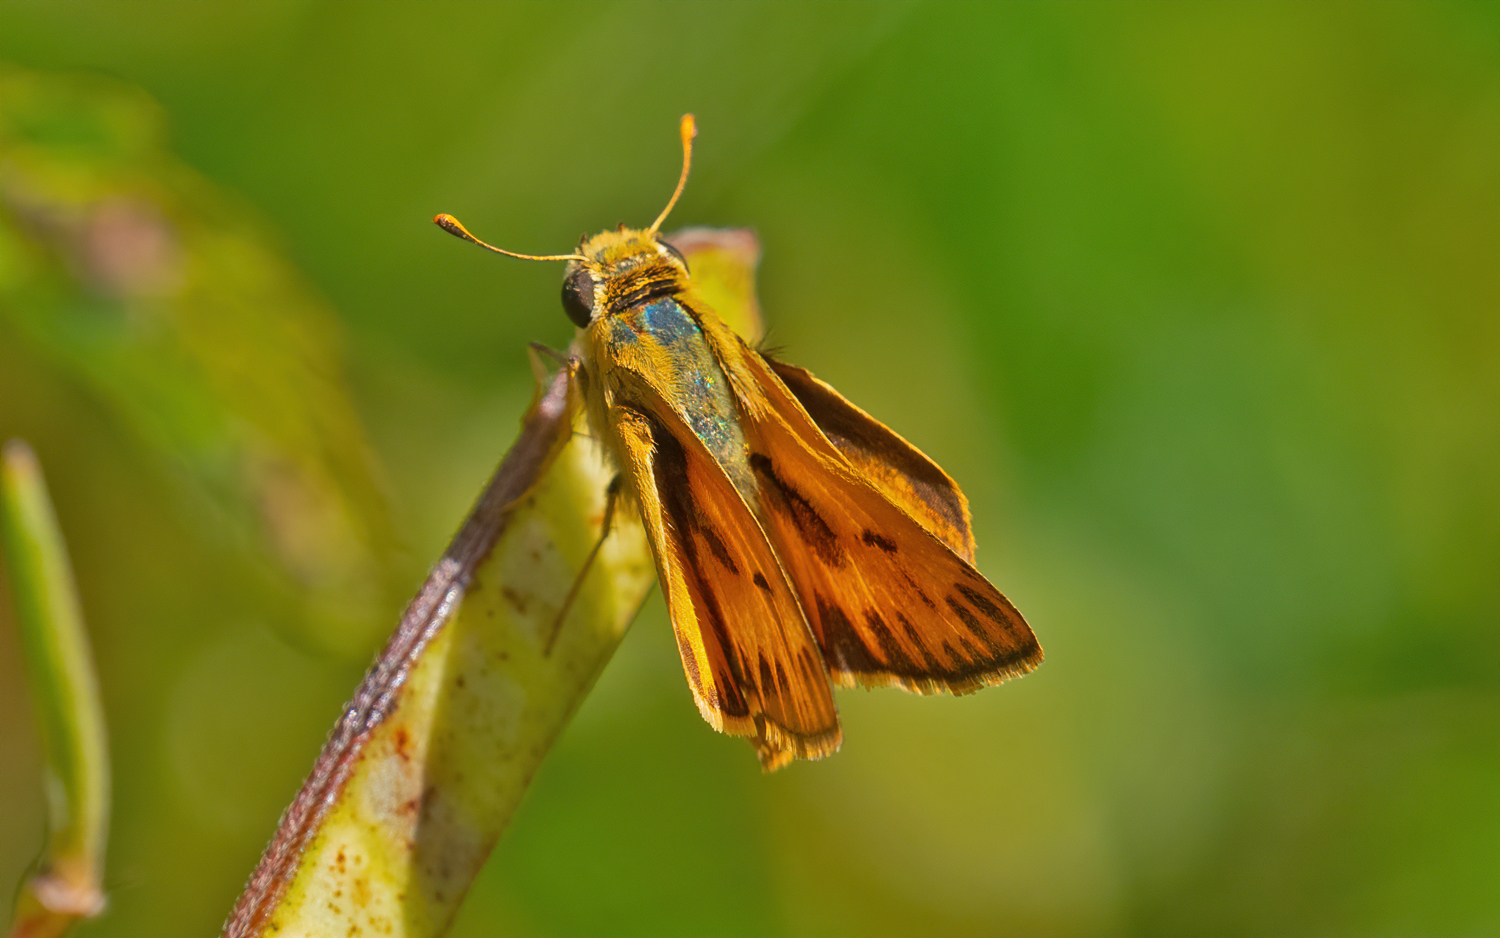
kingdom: Animalia
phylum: Arthropoda
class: Insecta
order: Lepidoptera
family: Hesperiidae
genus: Hylephila
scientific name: Hylephila phyleus
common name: Fiery skipper
